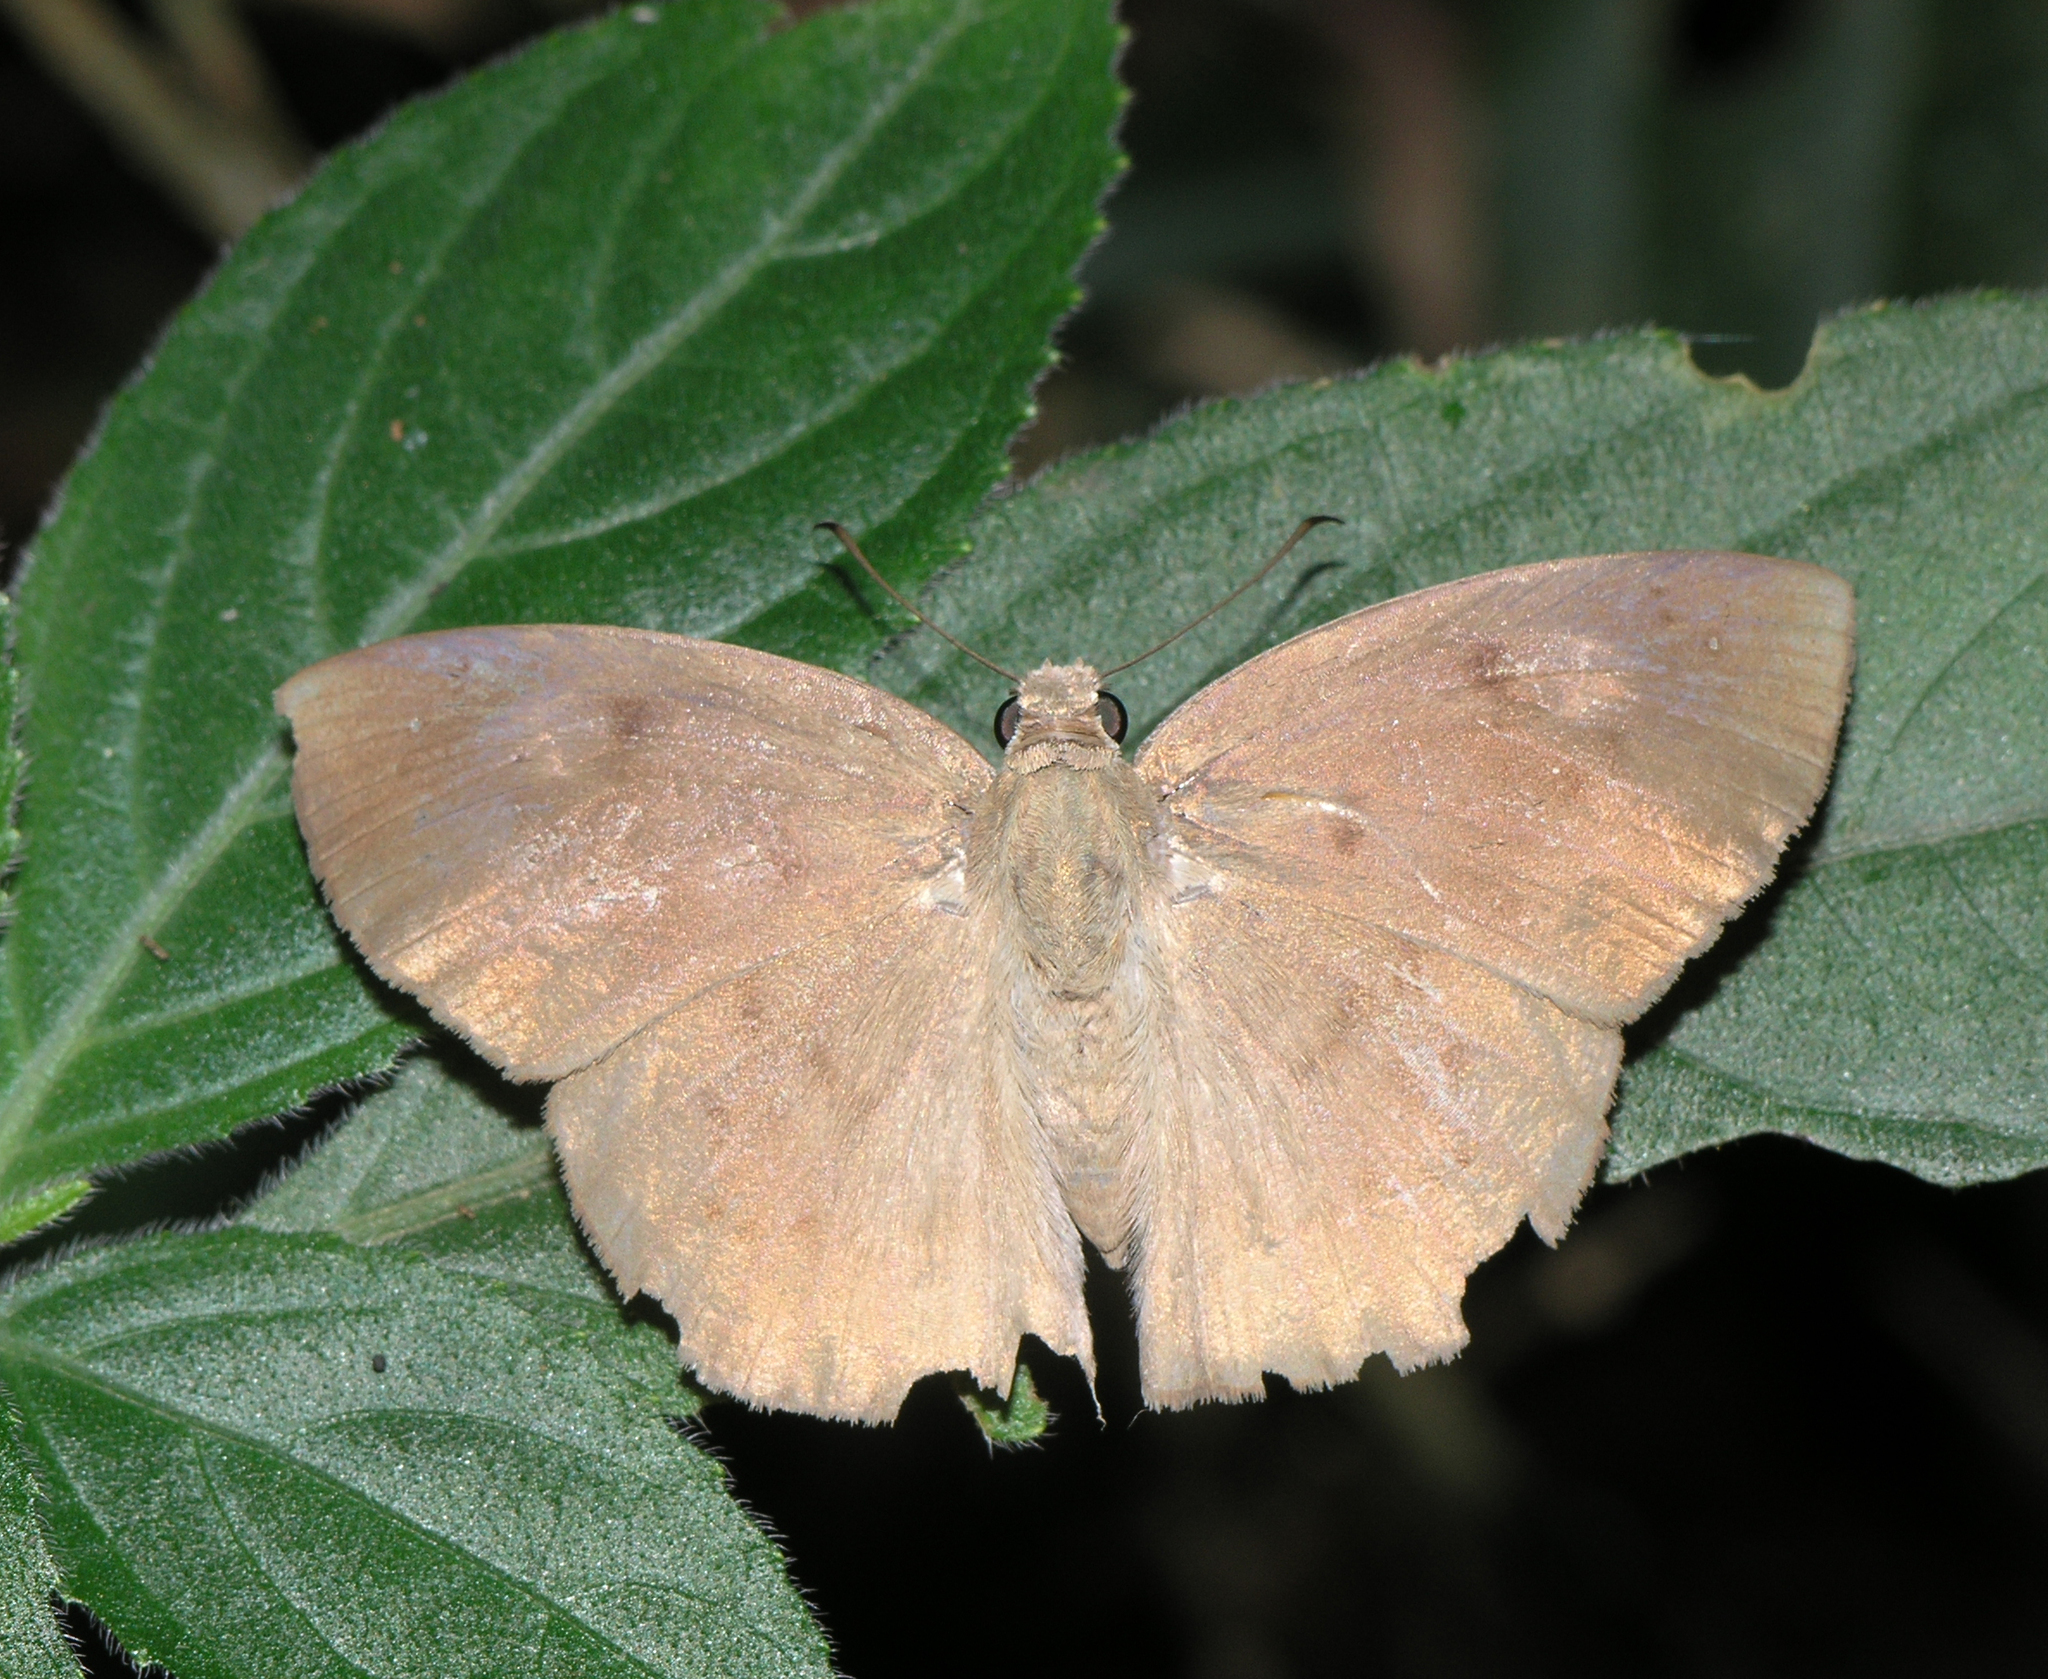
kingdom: Animalia
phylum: Arthropoda
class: Insecta
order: Lepidoptera
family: Hesperiidae
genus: Tagiades
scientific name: Tagiades japetus
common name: Pied flat
